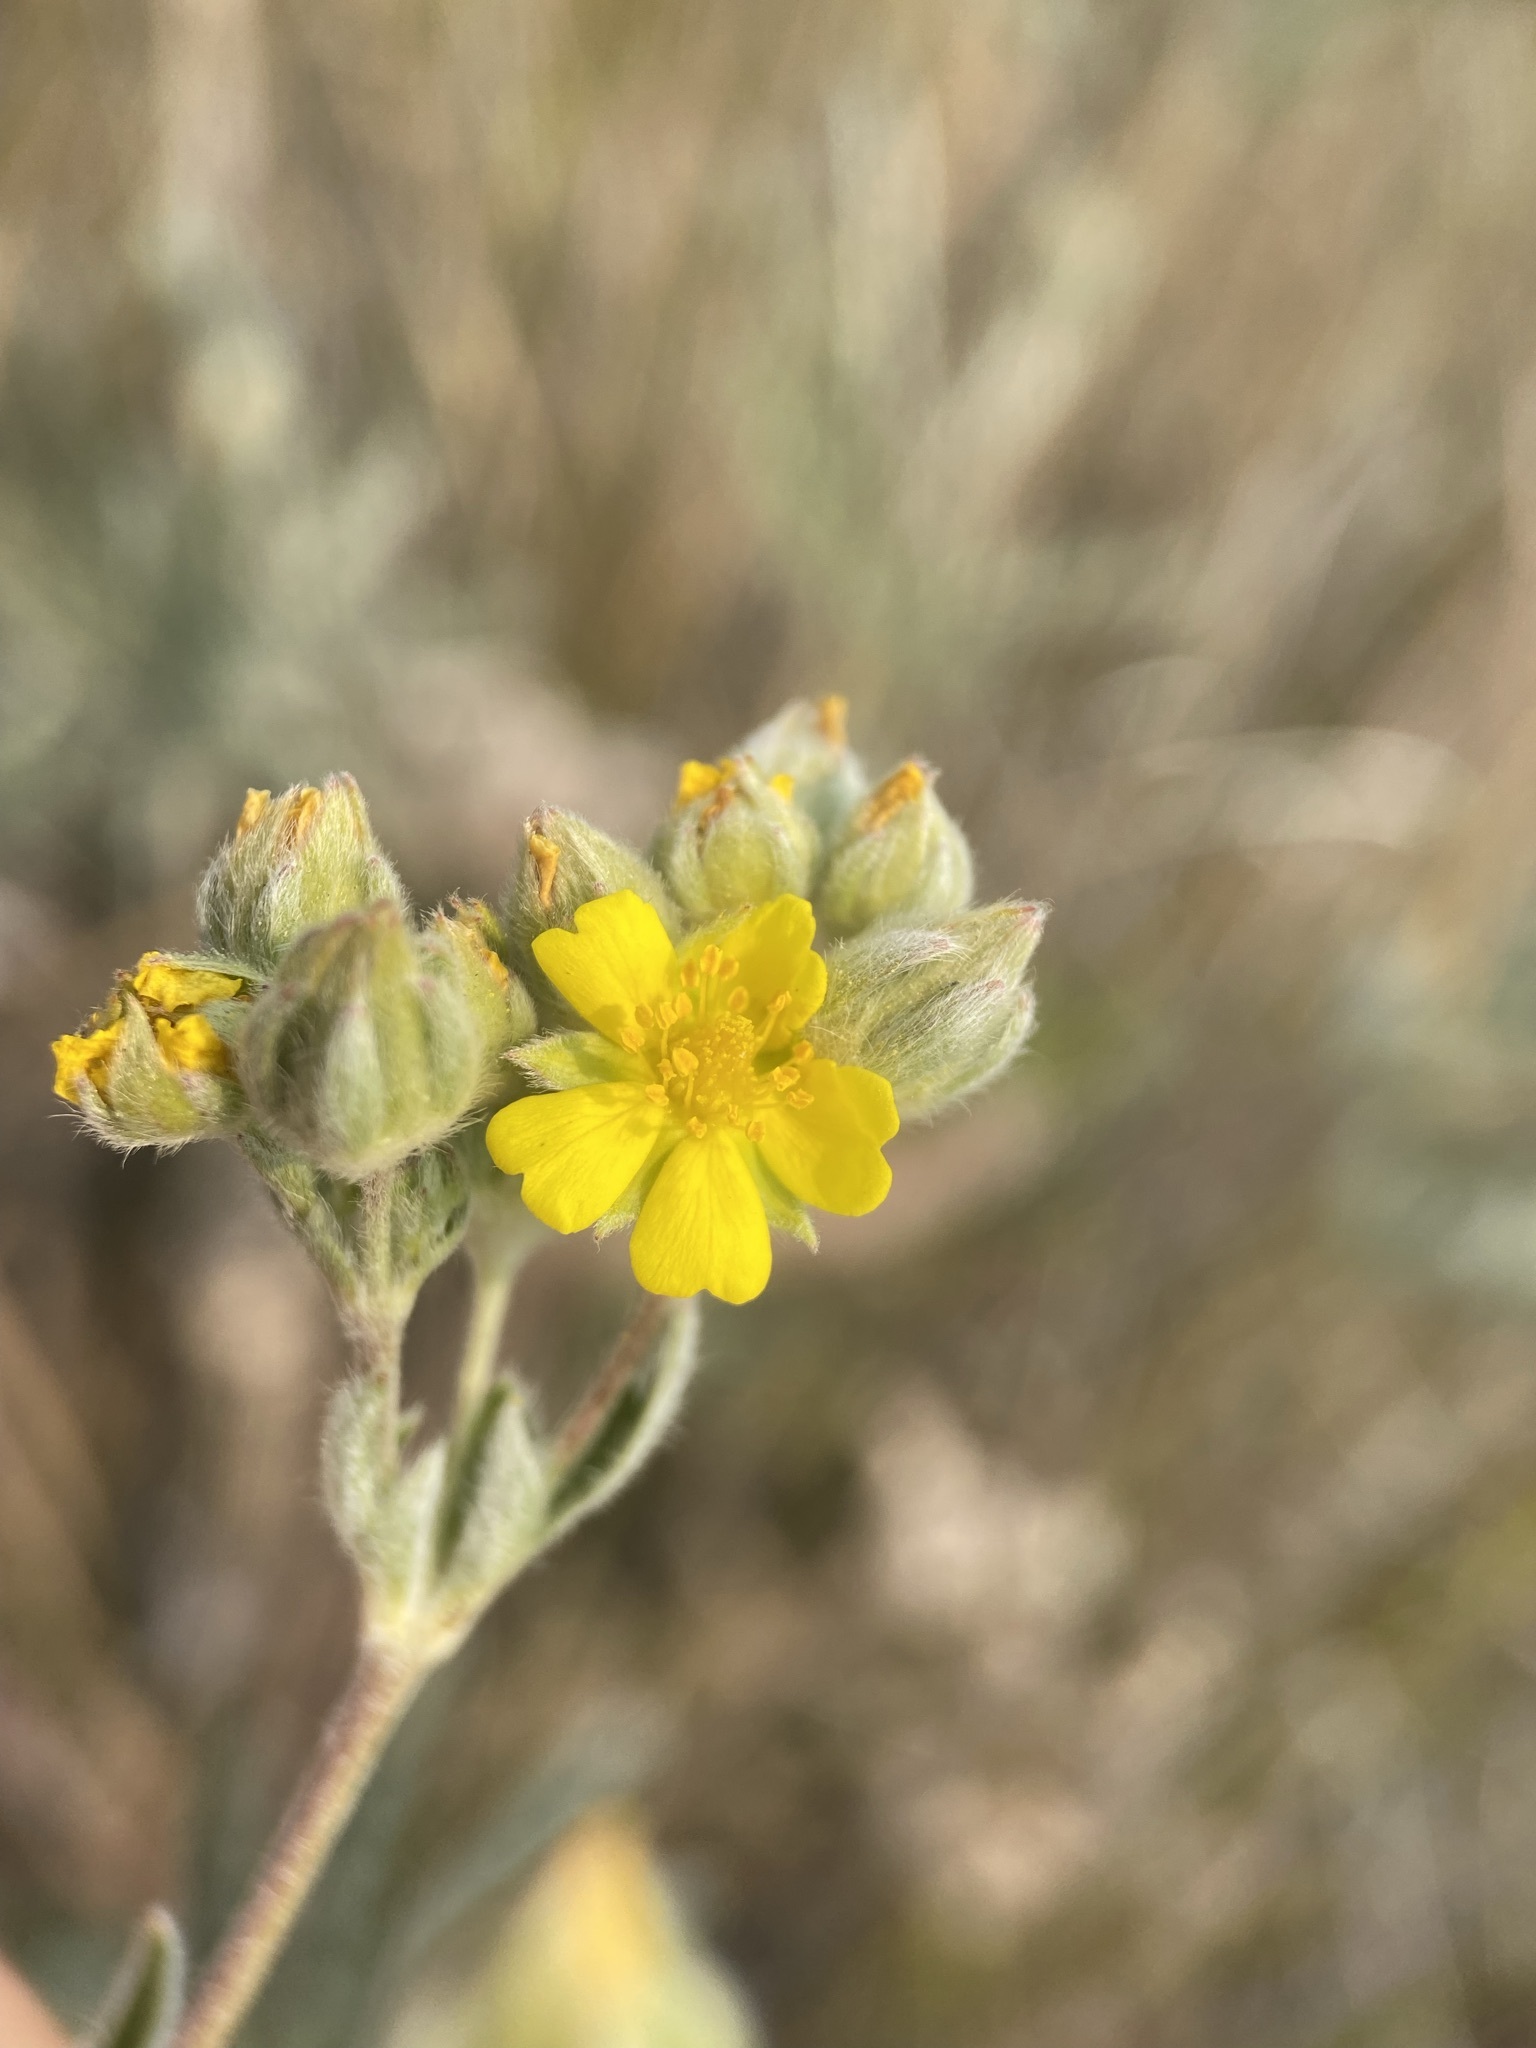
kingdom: Plantae
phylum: Tracheophyta
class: Magnoliopsida
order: Rosales
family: Rosaceae
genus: Potentilla
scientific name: Potentilla gracilis
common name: Graceful cinquefoil
